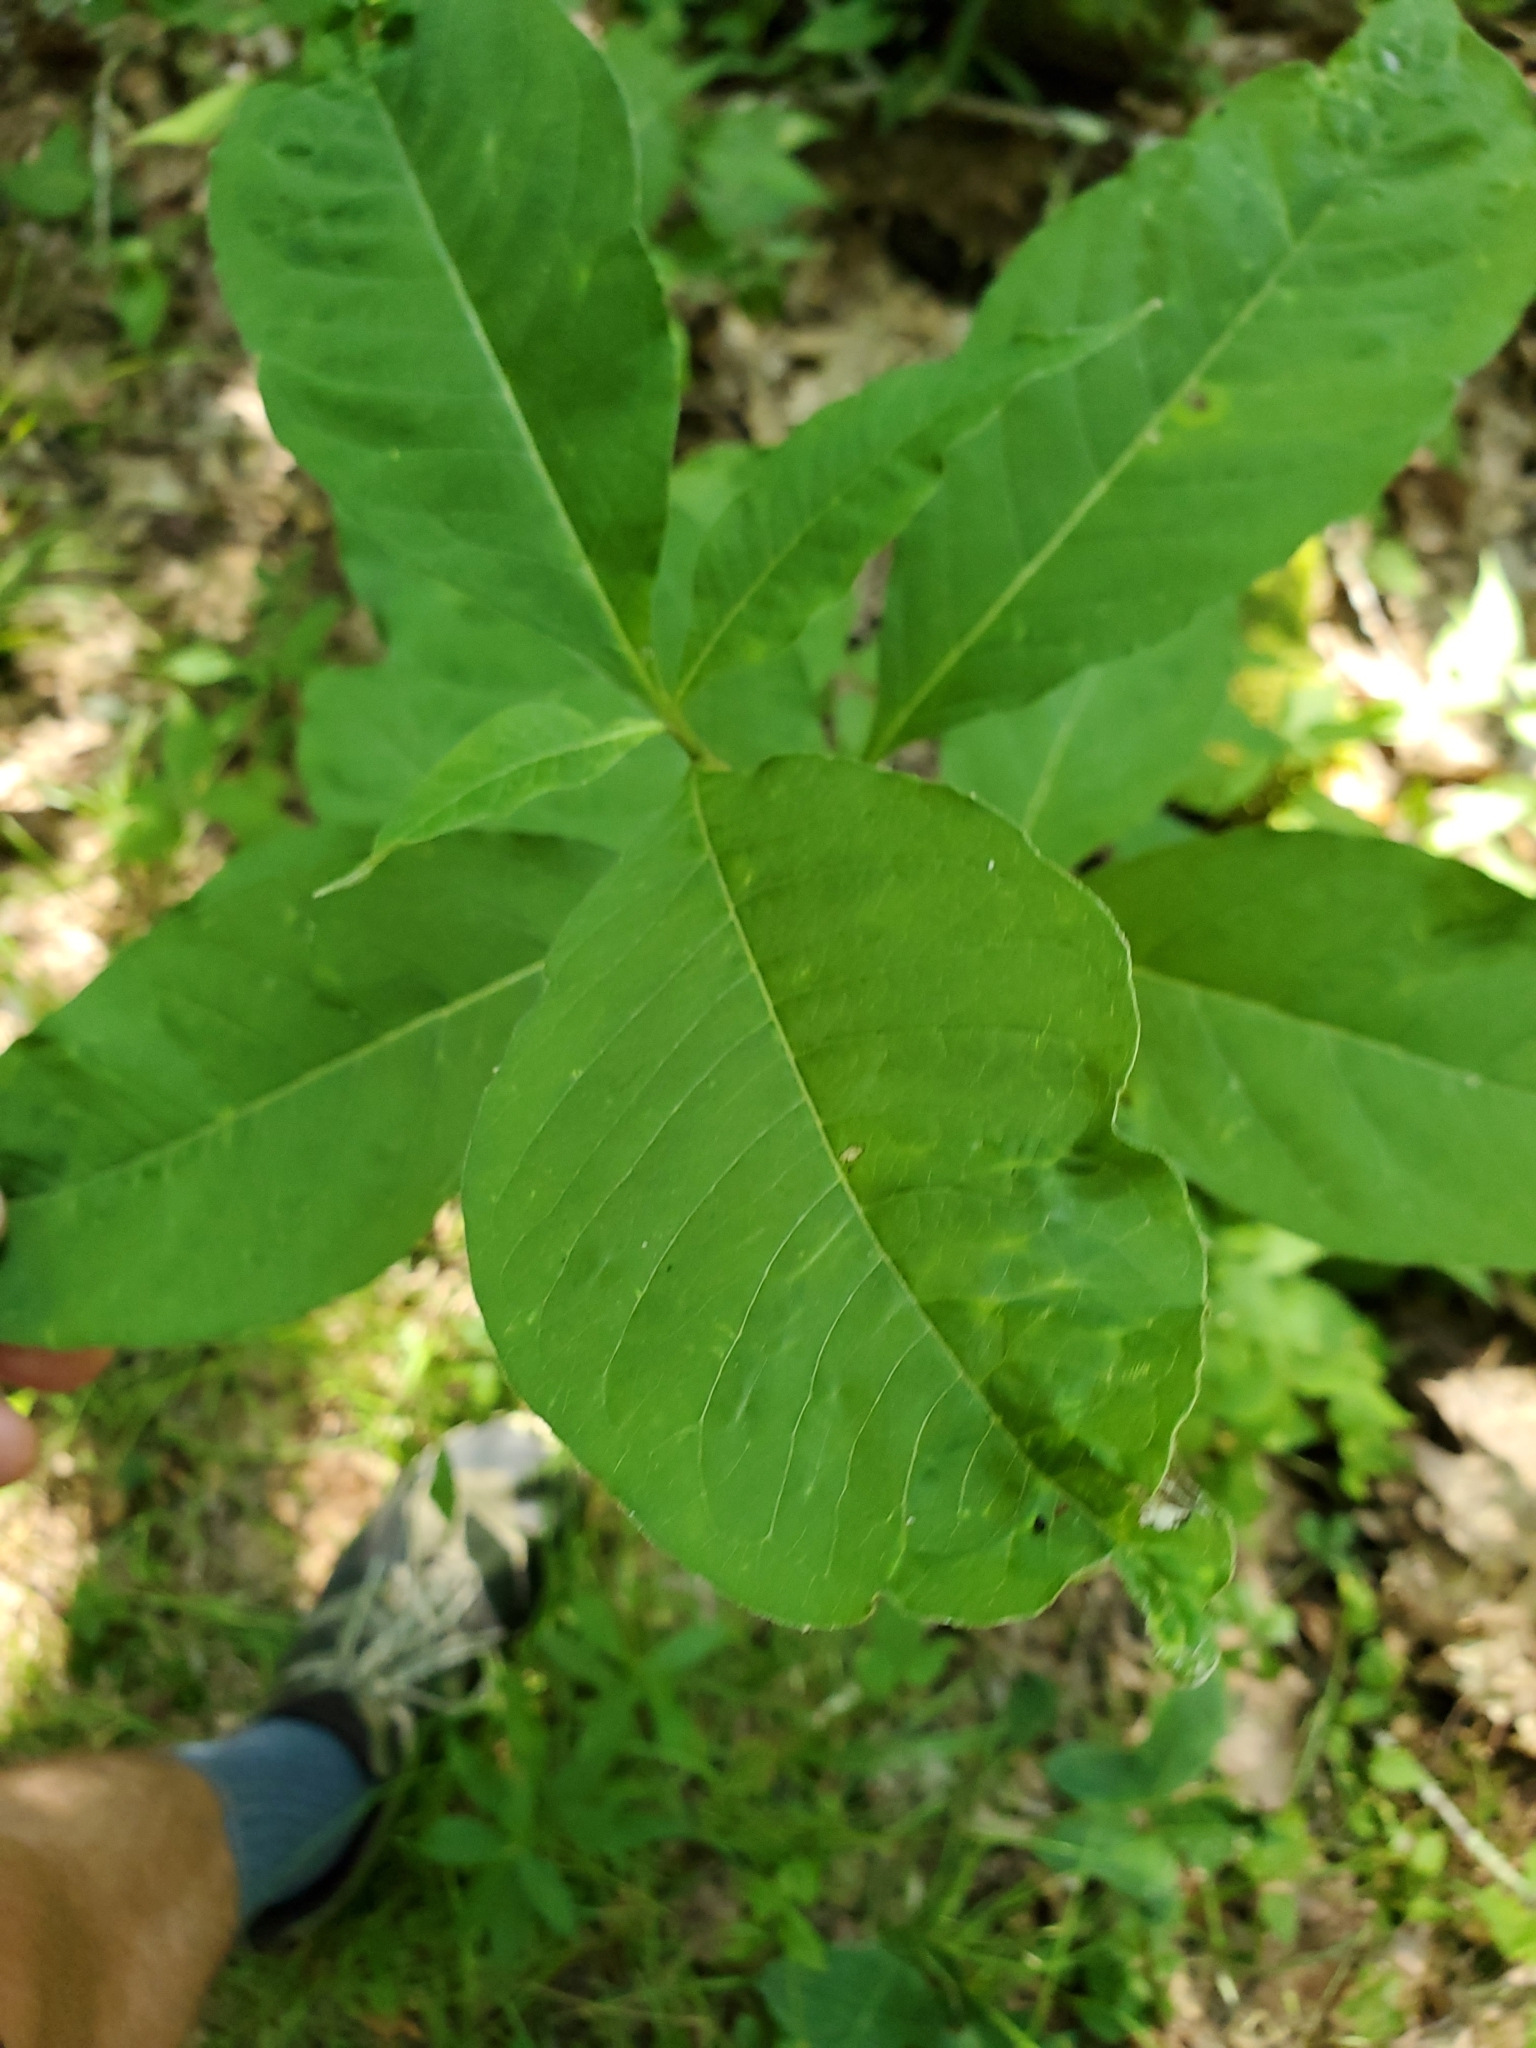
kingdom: Plantae
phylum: Tracheophyta
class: Magnoliopsida
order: Gentianales
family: Apocynaceae
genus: Asclepias
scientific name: Asclepias exaltata
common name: Poke milkweed
